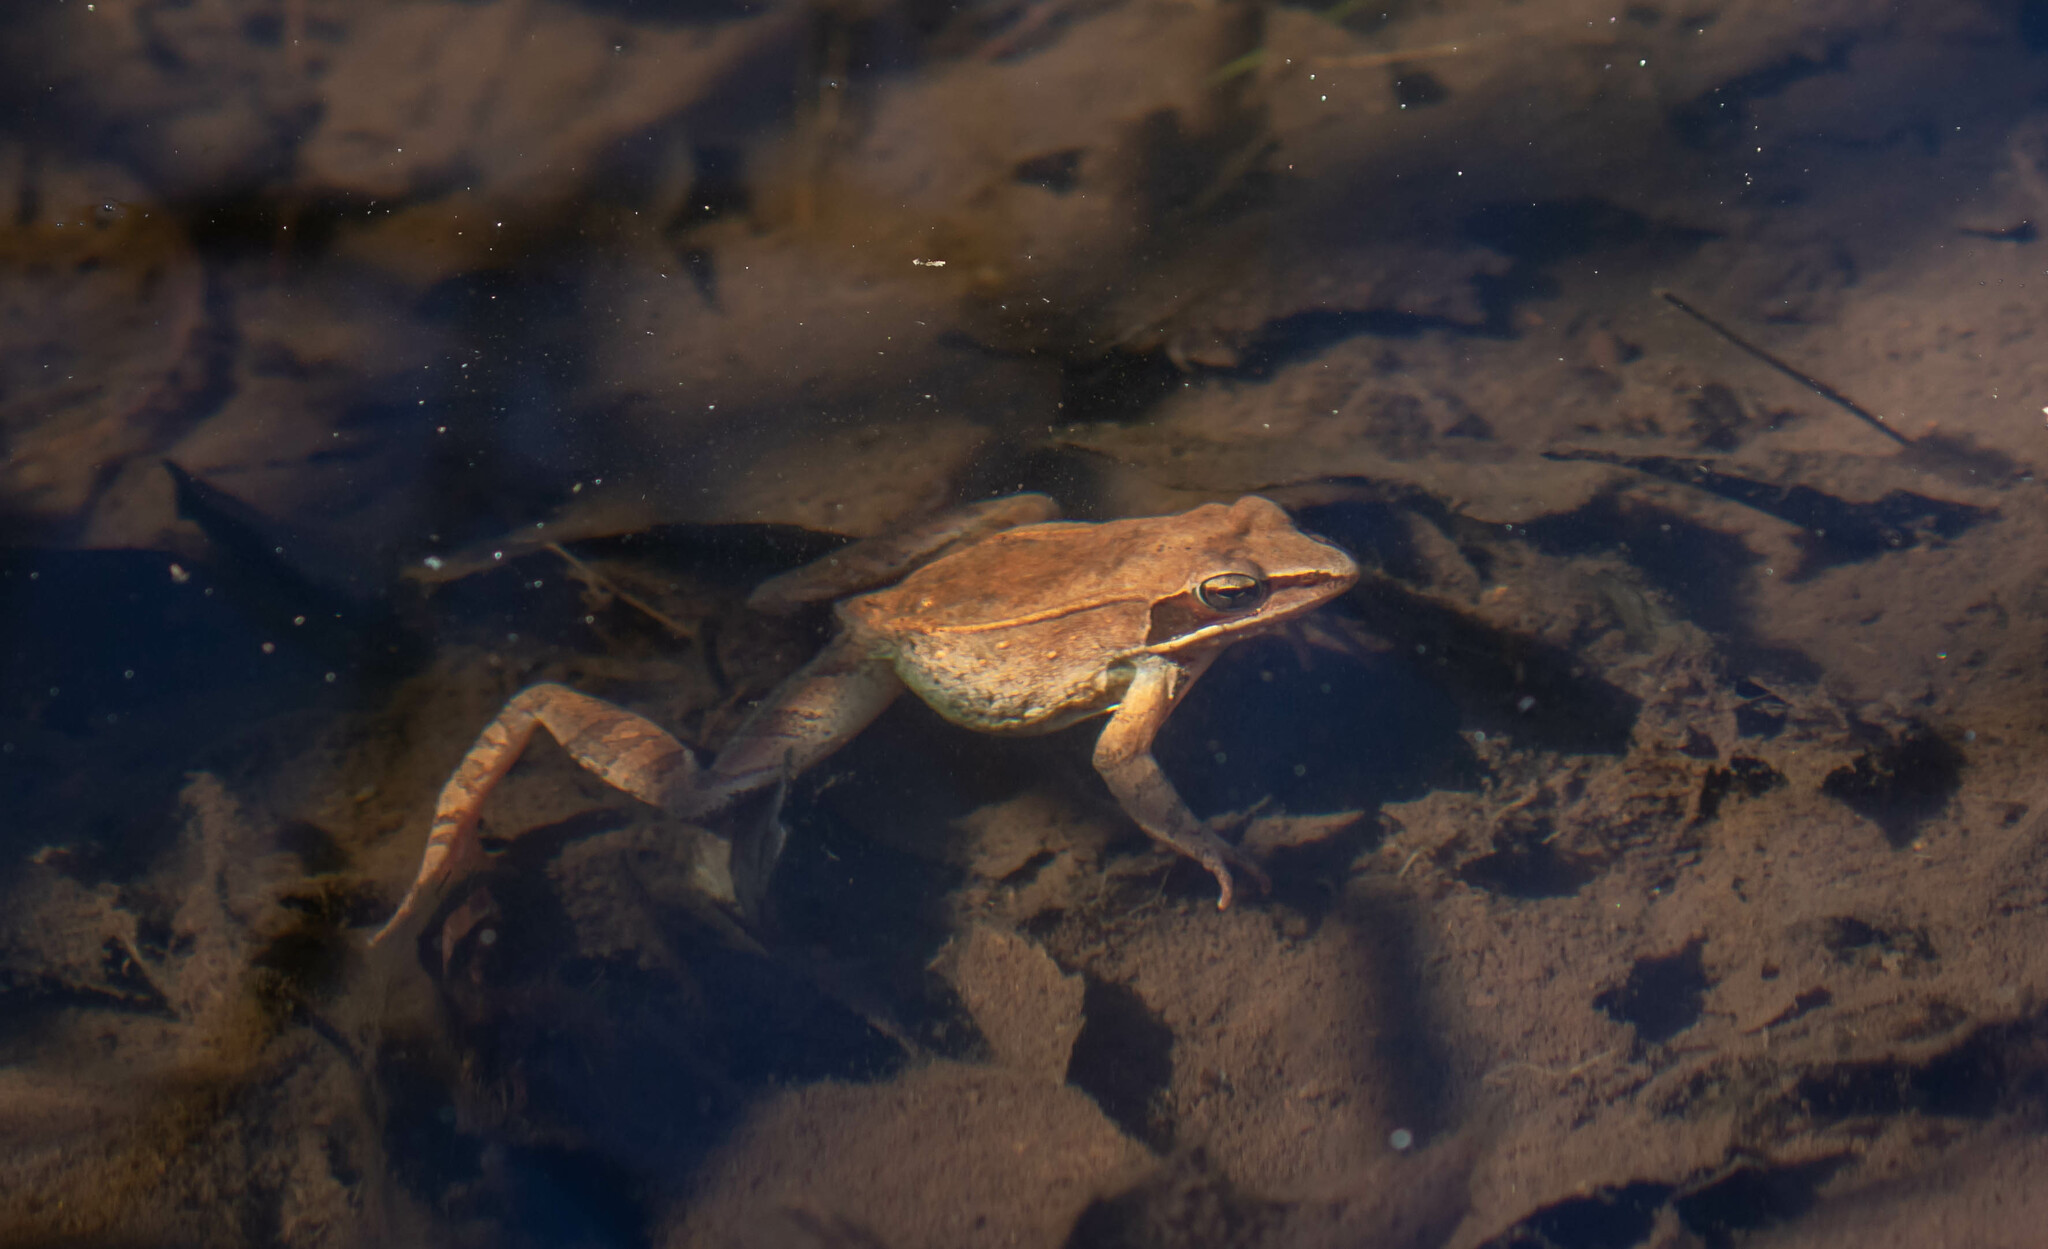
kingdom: Animalia
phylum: Chordata
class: Amphibia
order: Anura
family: Ranidae
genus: Lithobates
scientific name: Lithobates sylvaticus
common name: Wood frog
